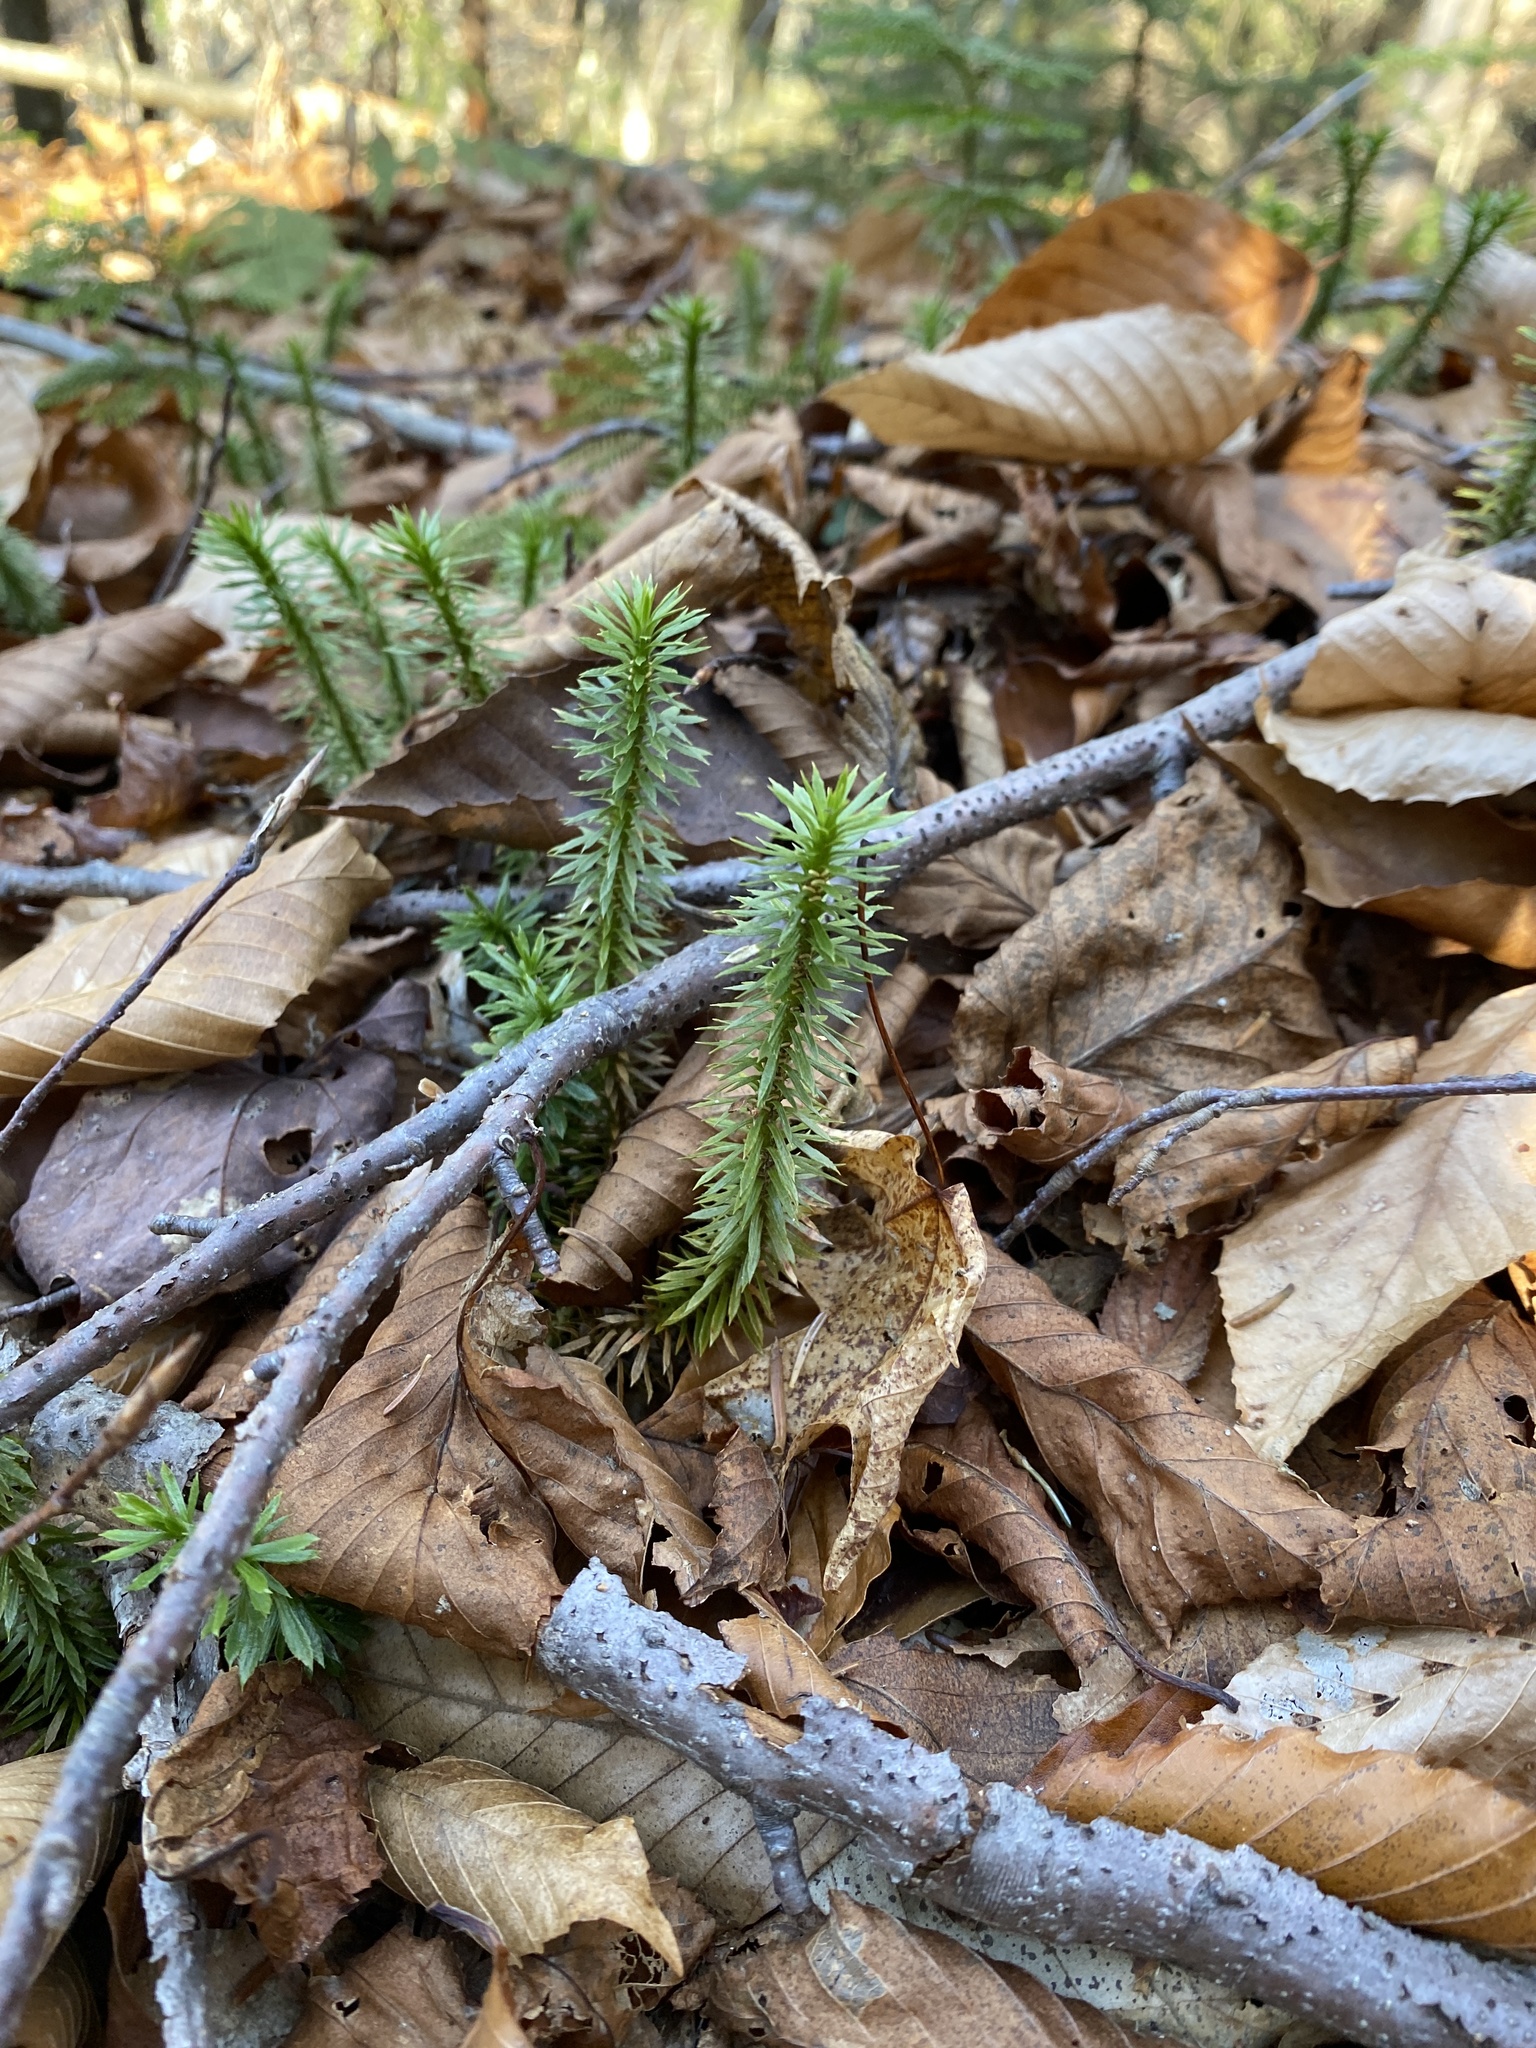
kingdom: Plantae
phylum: Tracheophyta
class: Lycopodiopsida
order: Lycopodiales
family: Lycopodiaceae
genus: Huperzia
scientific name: Huperzia lucidula
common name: Shining clubmoss
